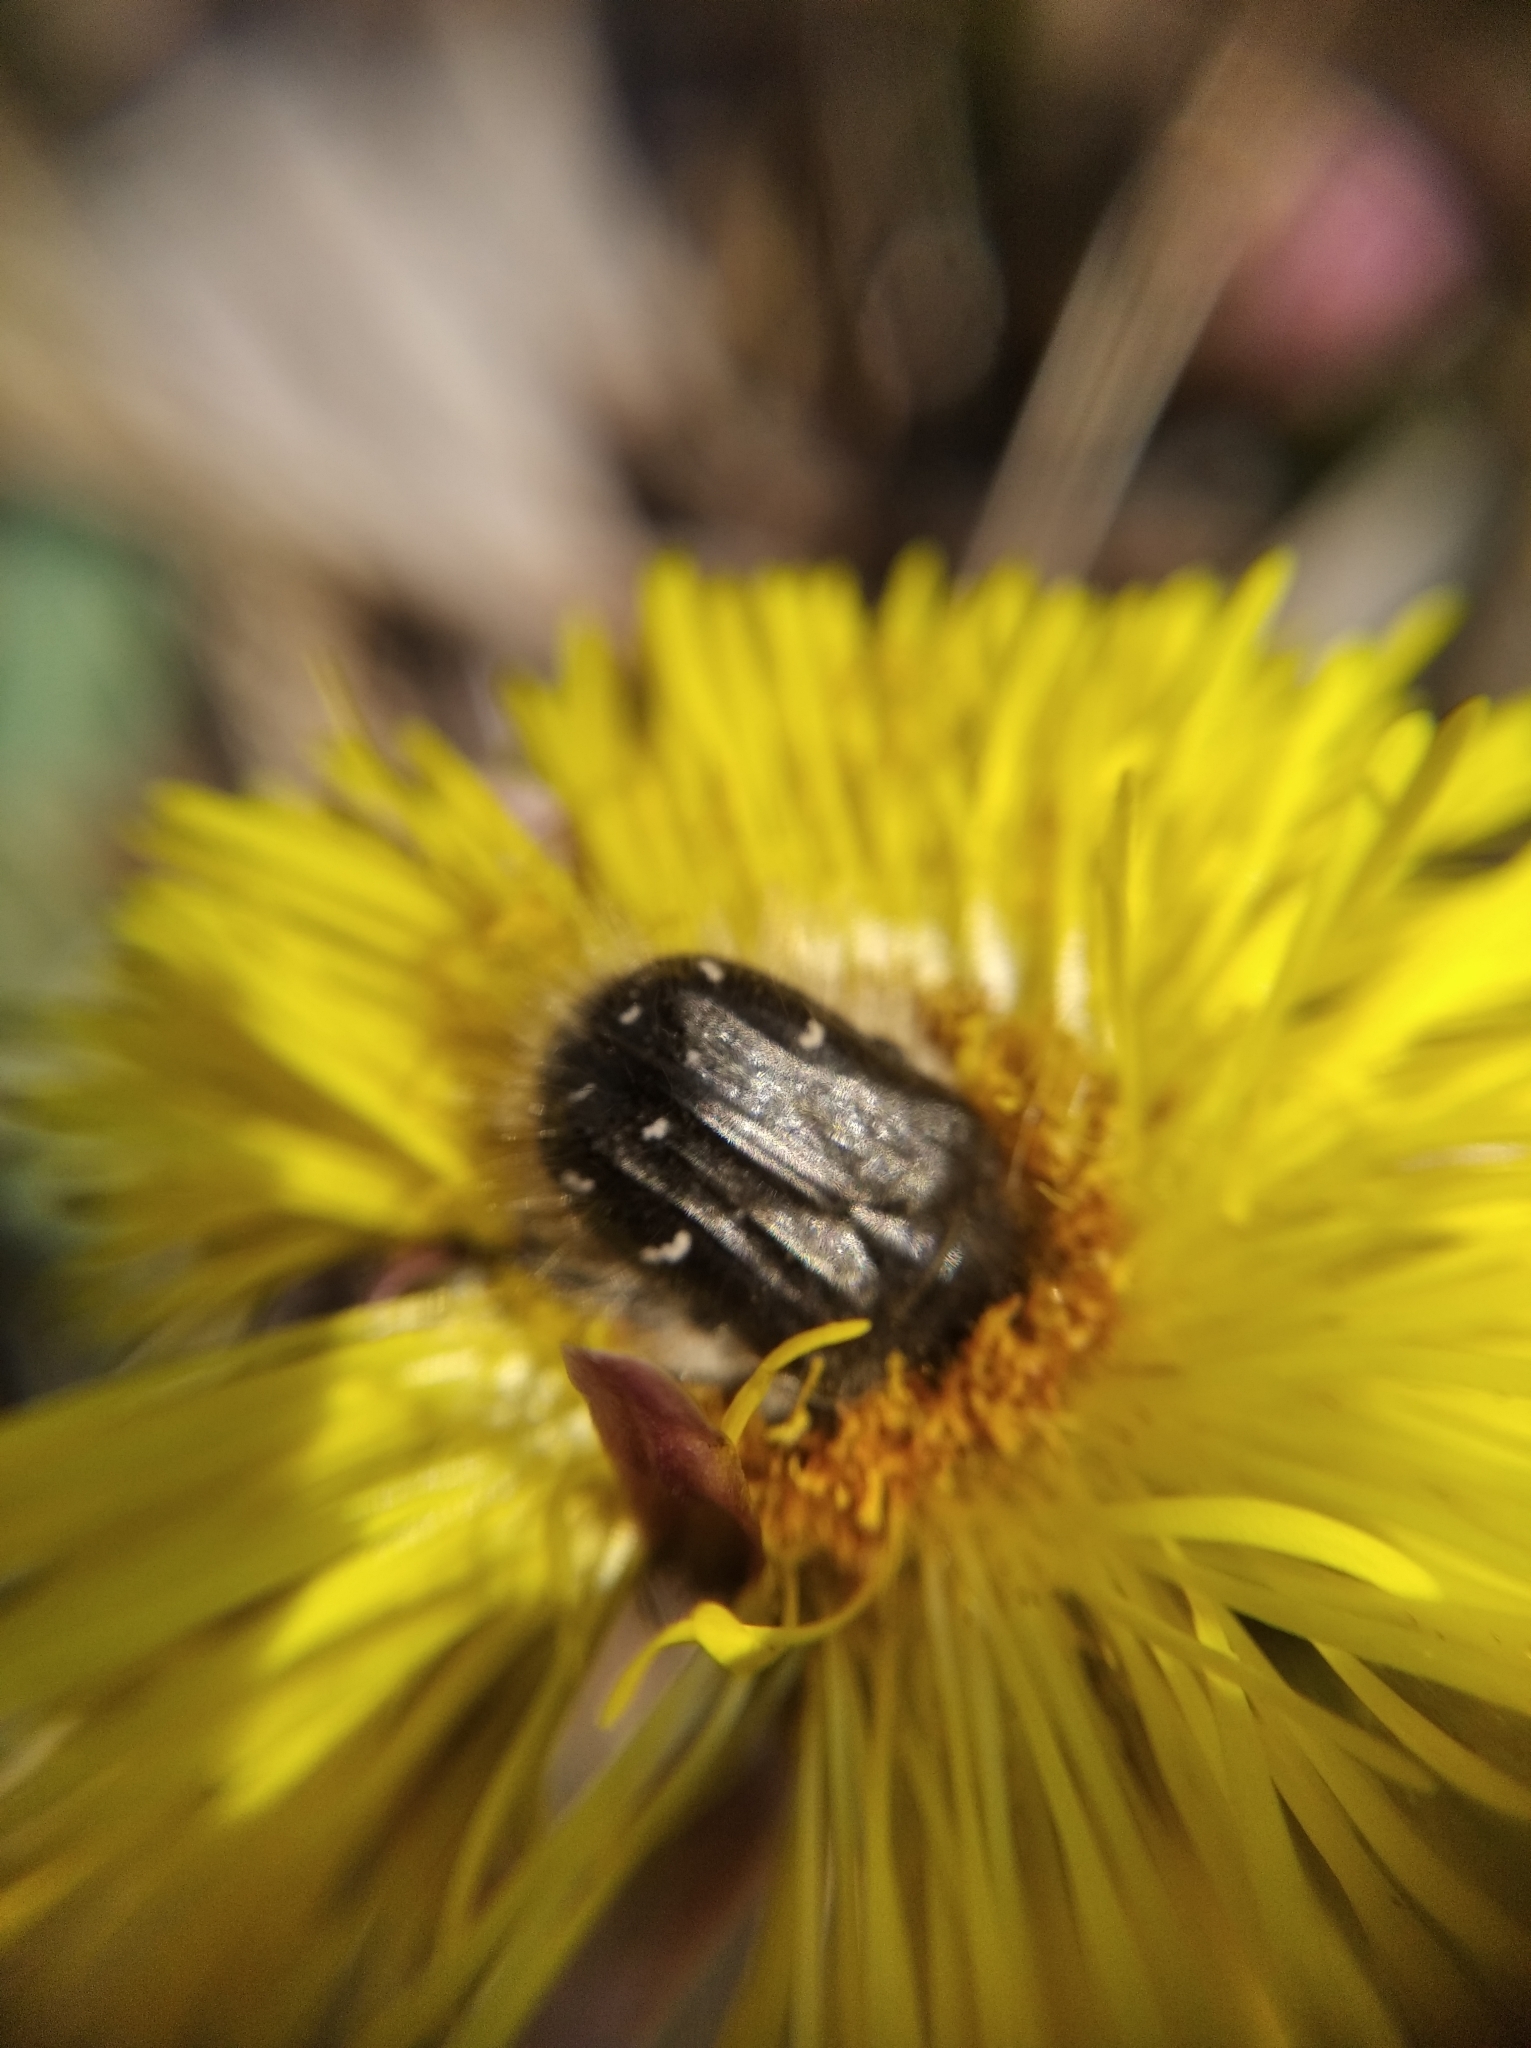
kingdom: Animalia
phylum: Arthropoda
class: Insecta
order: Coleoptera
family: Scarabaeidae
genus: Tropinota
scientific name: Tropinota hirta
